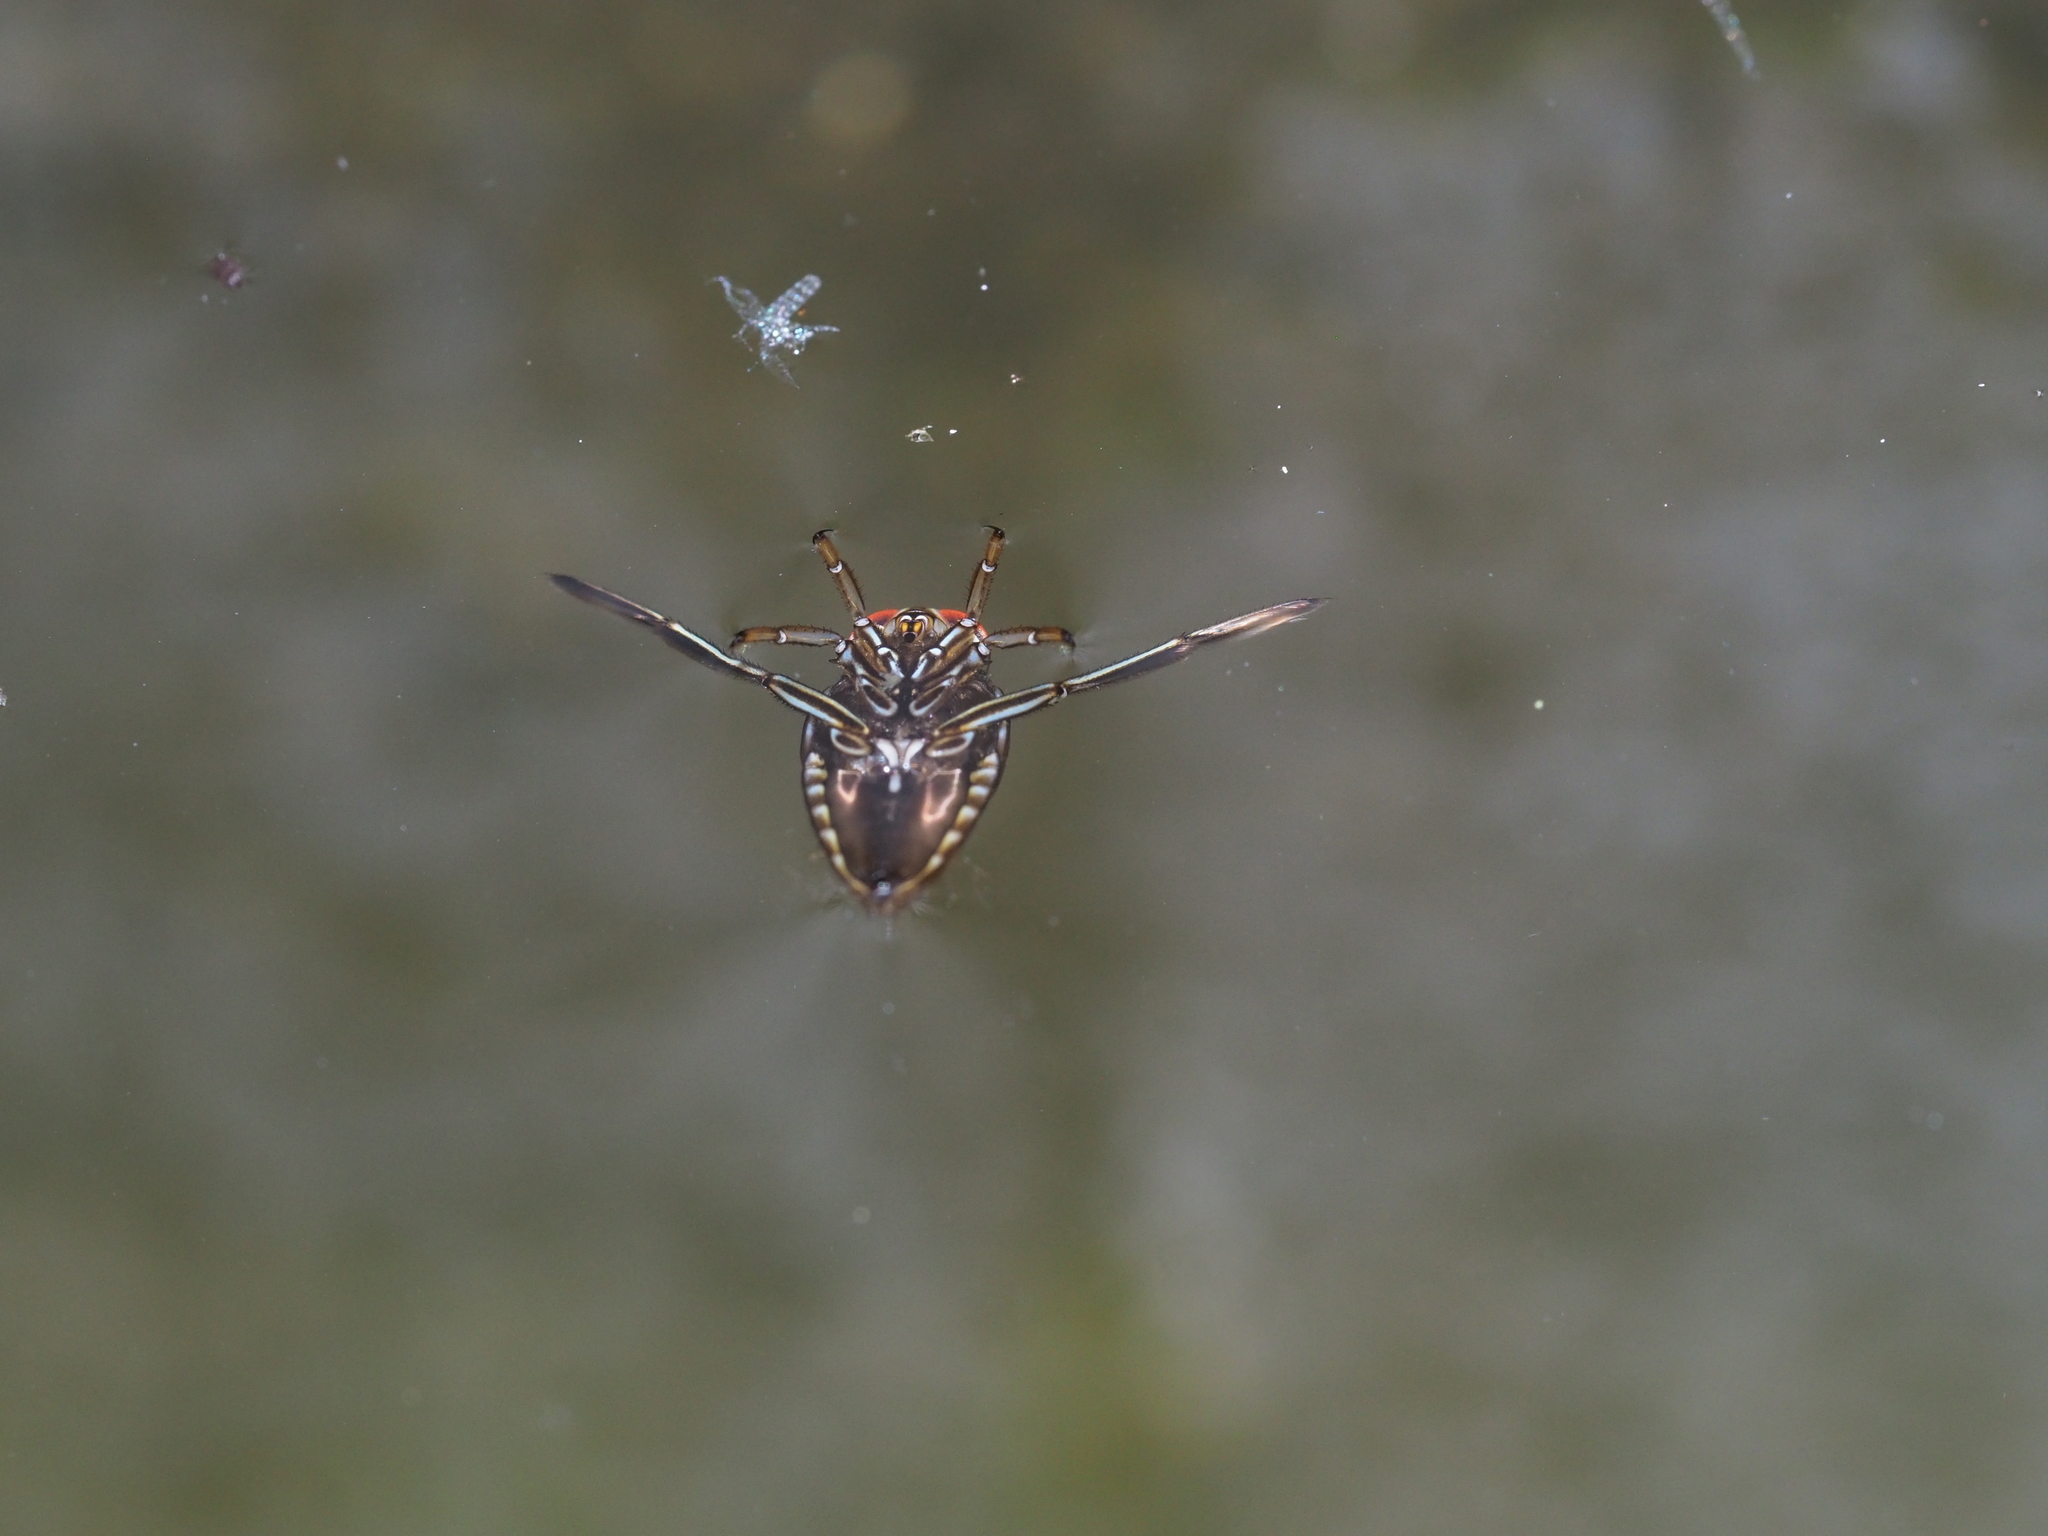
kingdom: Animalia
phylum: Arthropoda
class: Insecta
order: Hemiptera
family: Notonectidae
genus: Notonecta
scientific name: Notonecta
